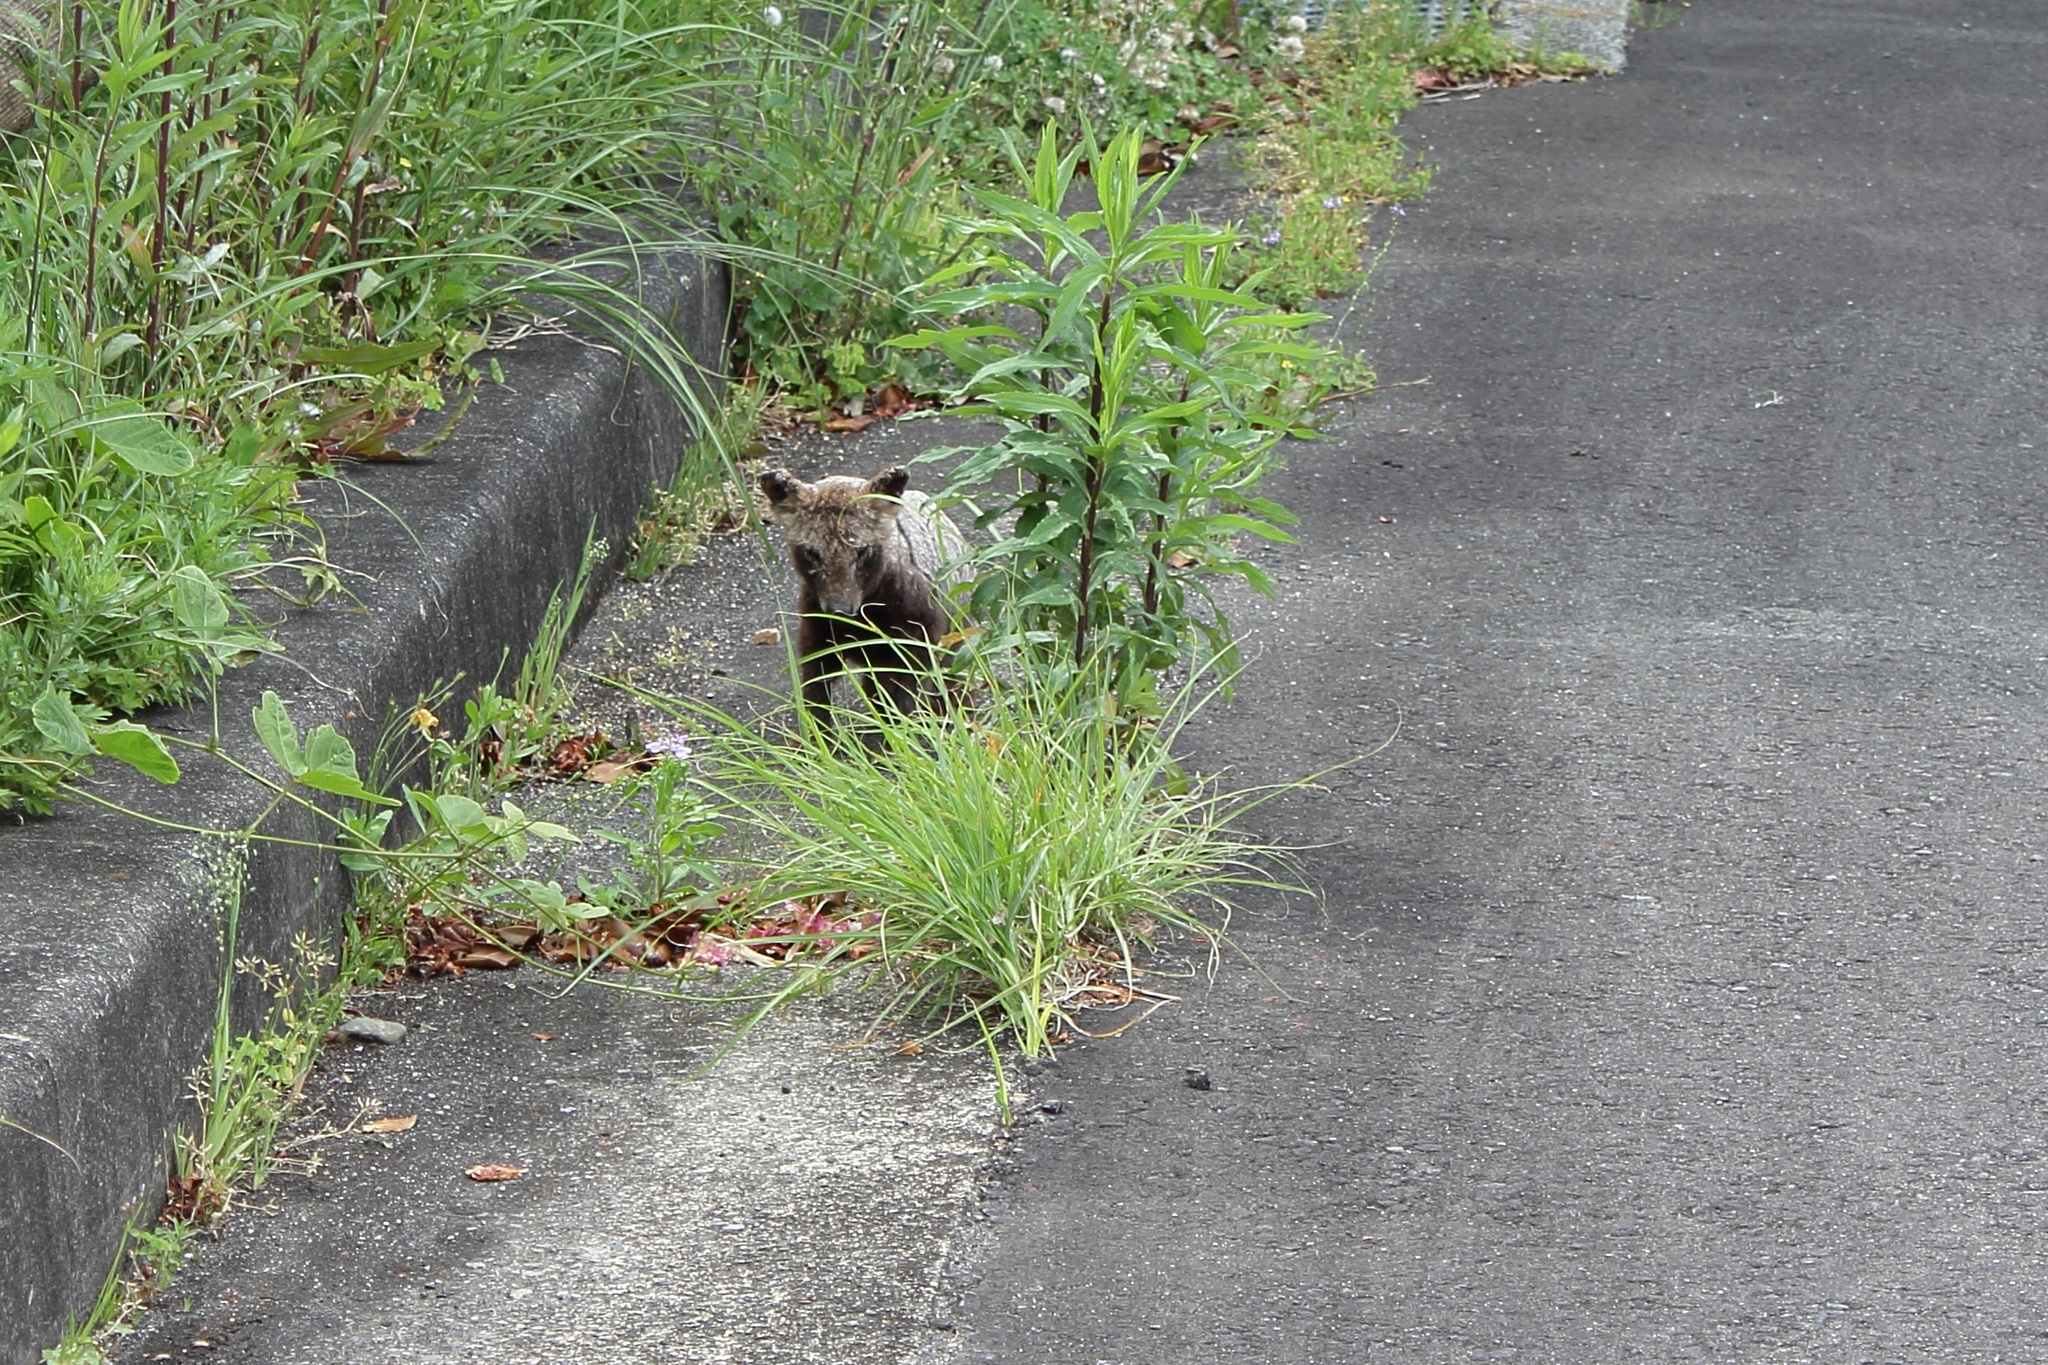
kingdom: Animalia
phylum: Chordata
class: Mammalia
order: Carnivora
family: Canidae
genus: Nyctereutes
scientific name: Nyctereutes
